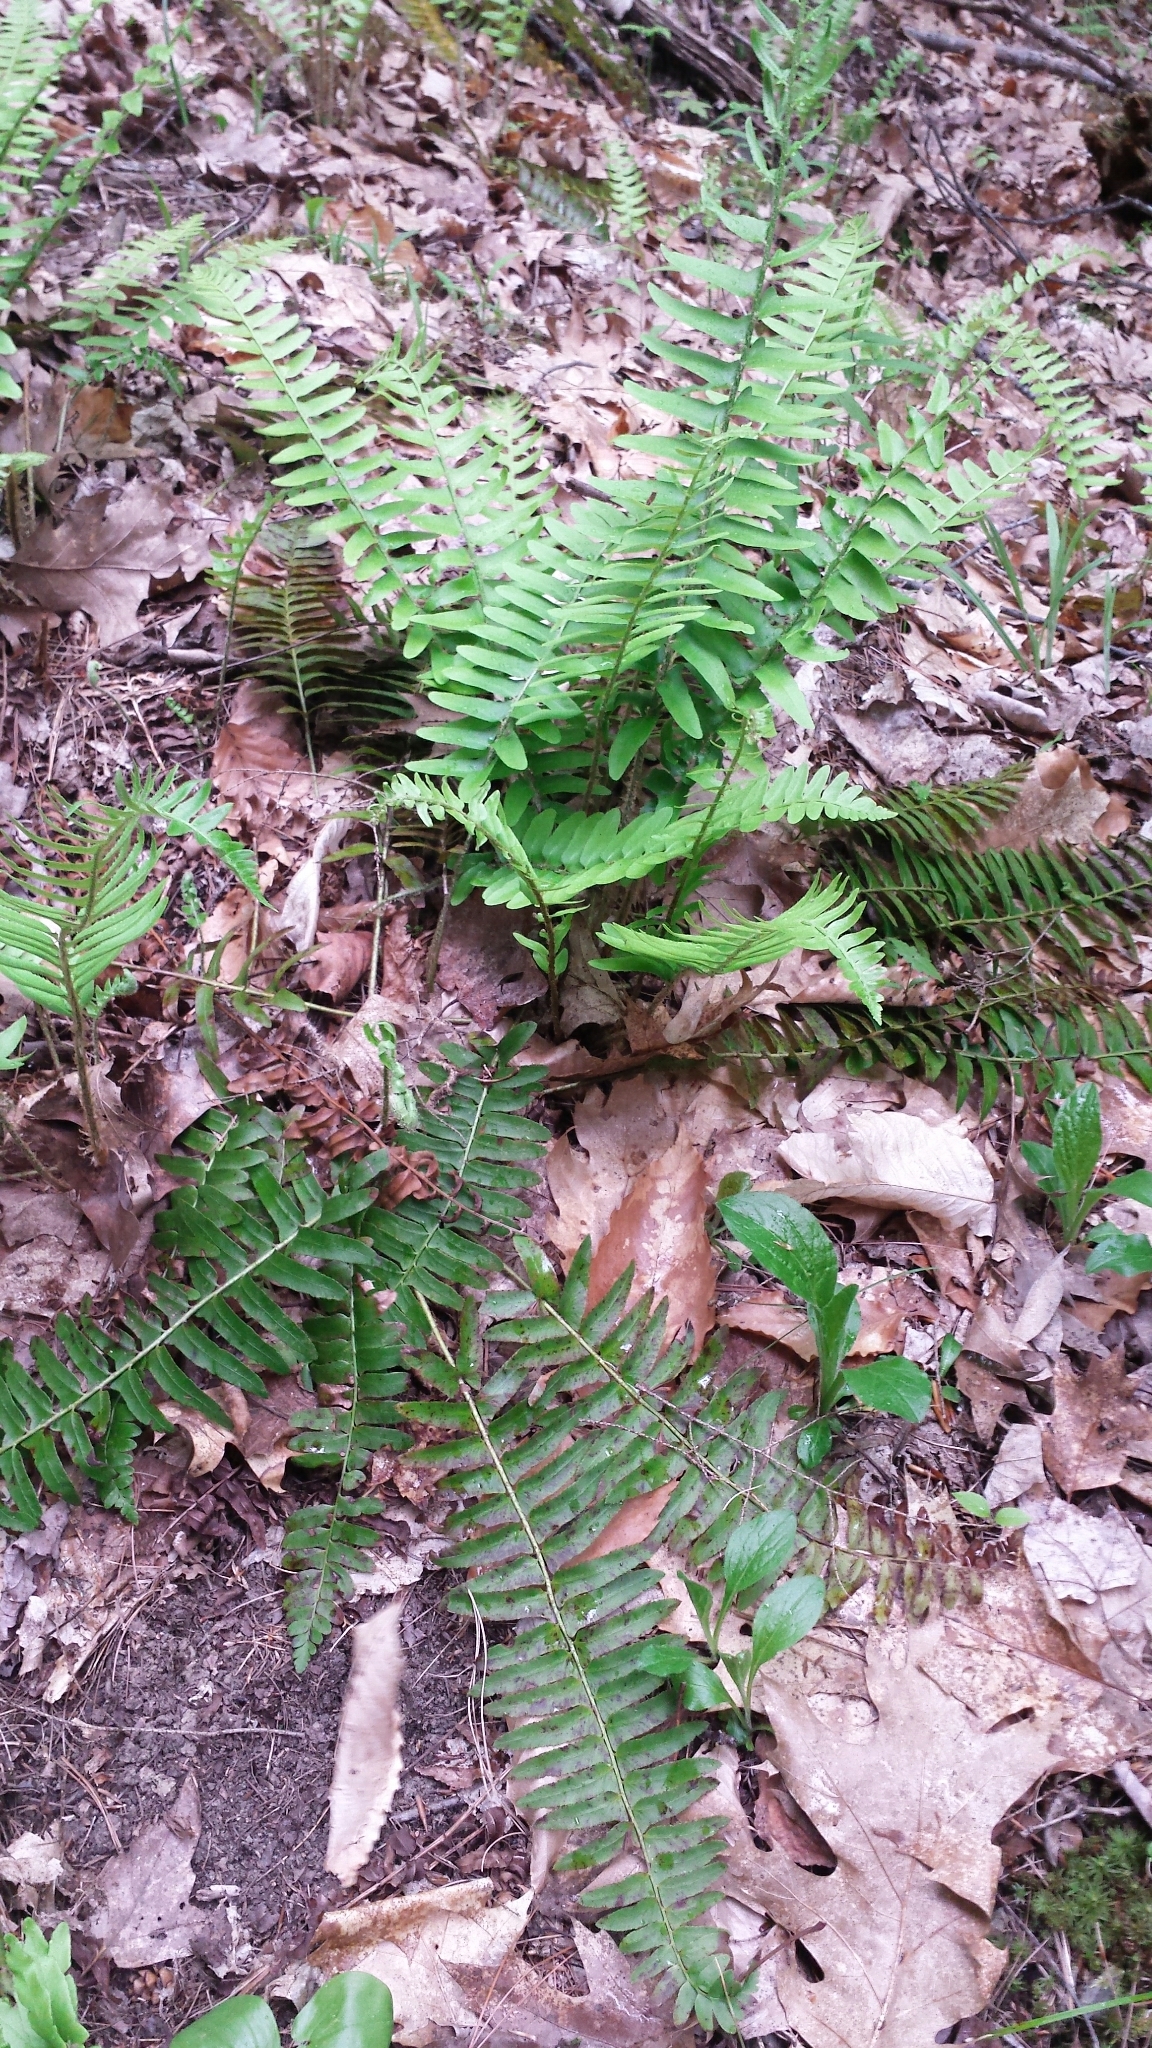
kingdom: Plantae
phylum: Tracheophyta
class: Polypodiopsida
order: Polypodiales
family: Dryopteridaceae
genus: Polystichum
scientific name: Polystichum acrostichoides
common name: Christmas fern
